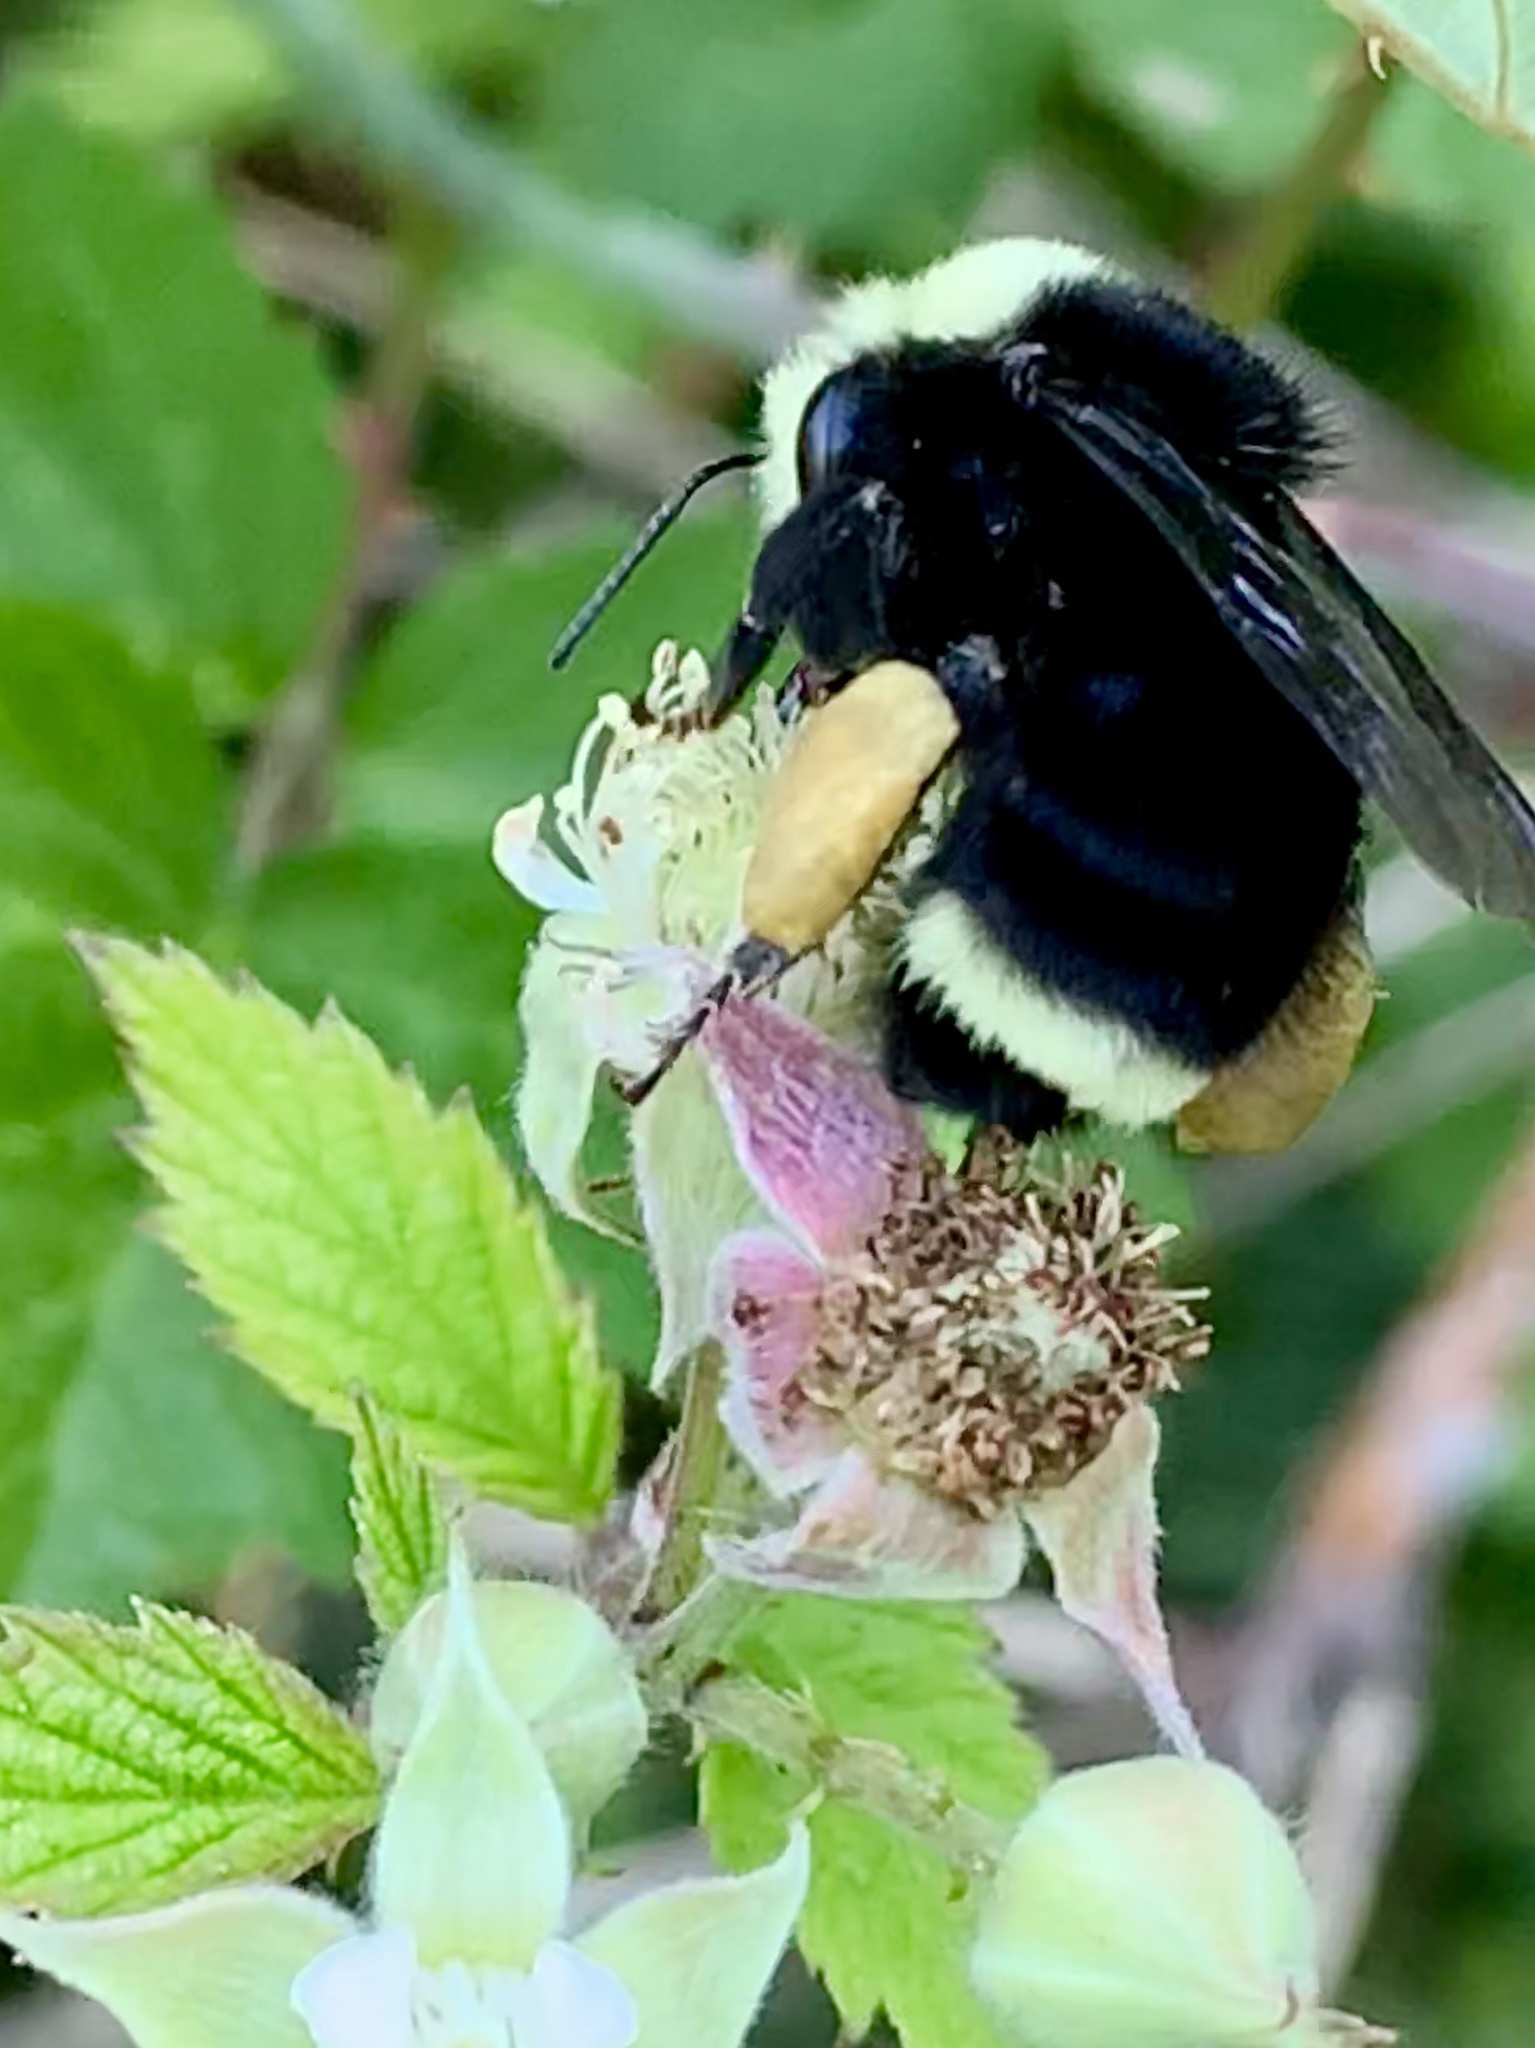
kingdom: Animalia
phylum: Arthropoda
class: Insecta
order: Hymenoptera
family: Apidae
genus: Bombus
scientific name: Bombus vosnesenskii
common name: Vosnesensky bumble bee
